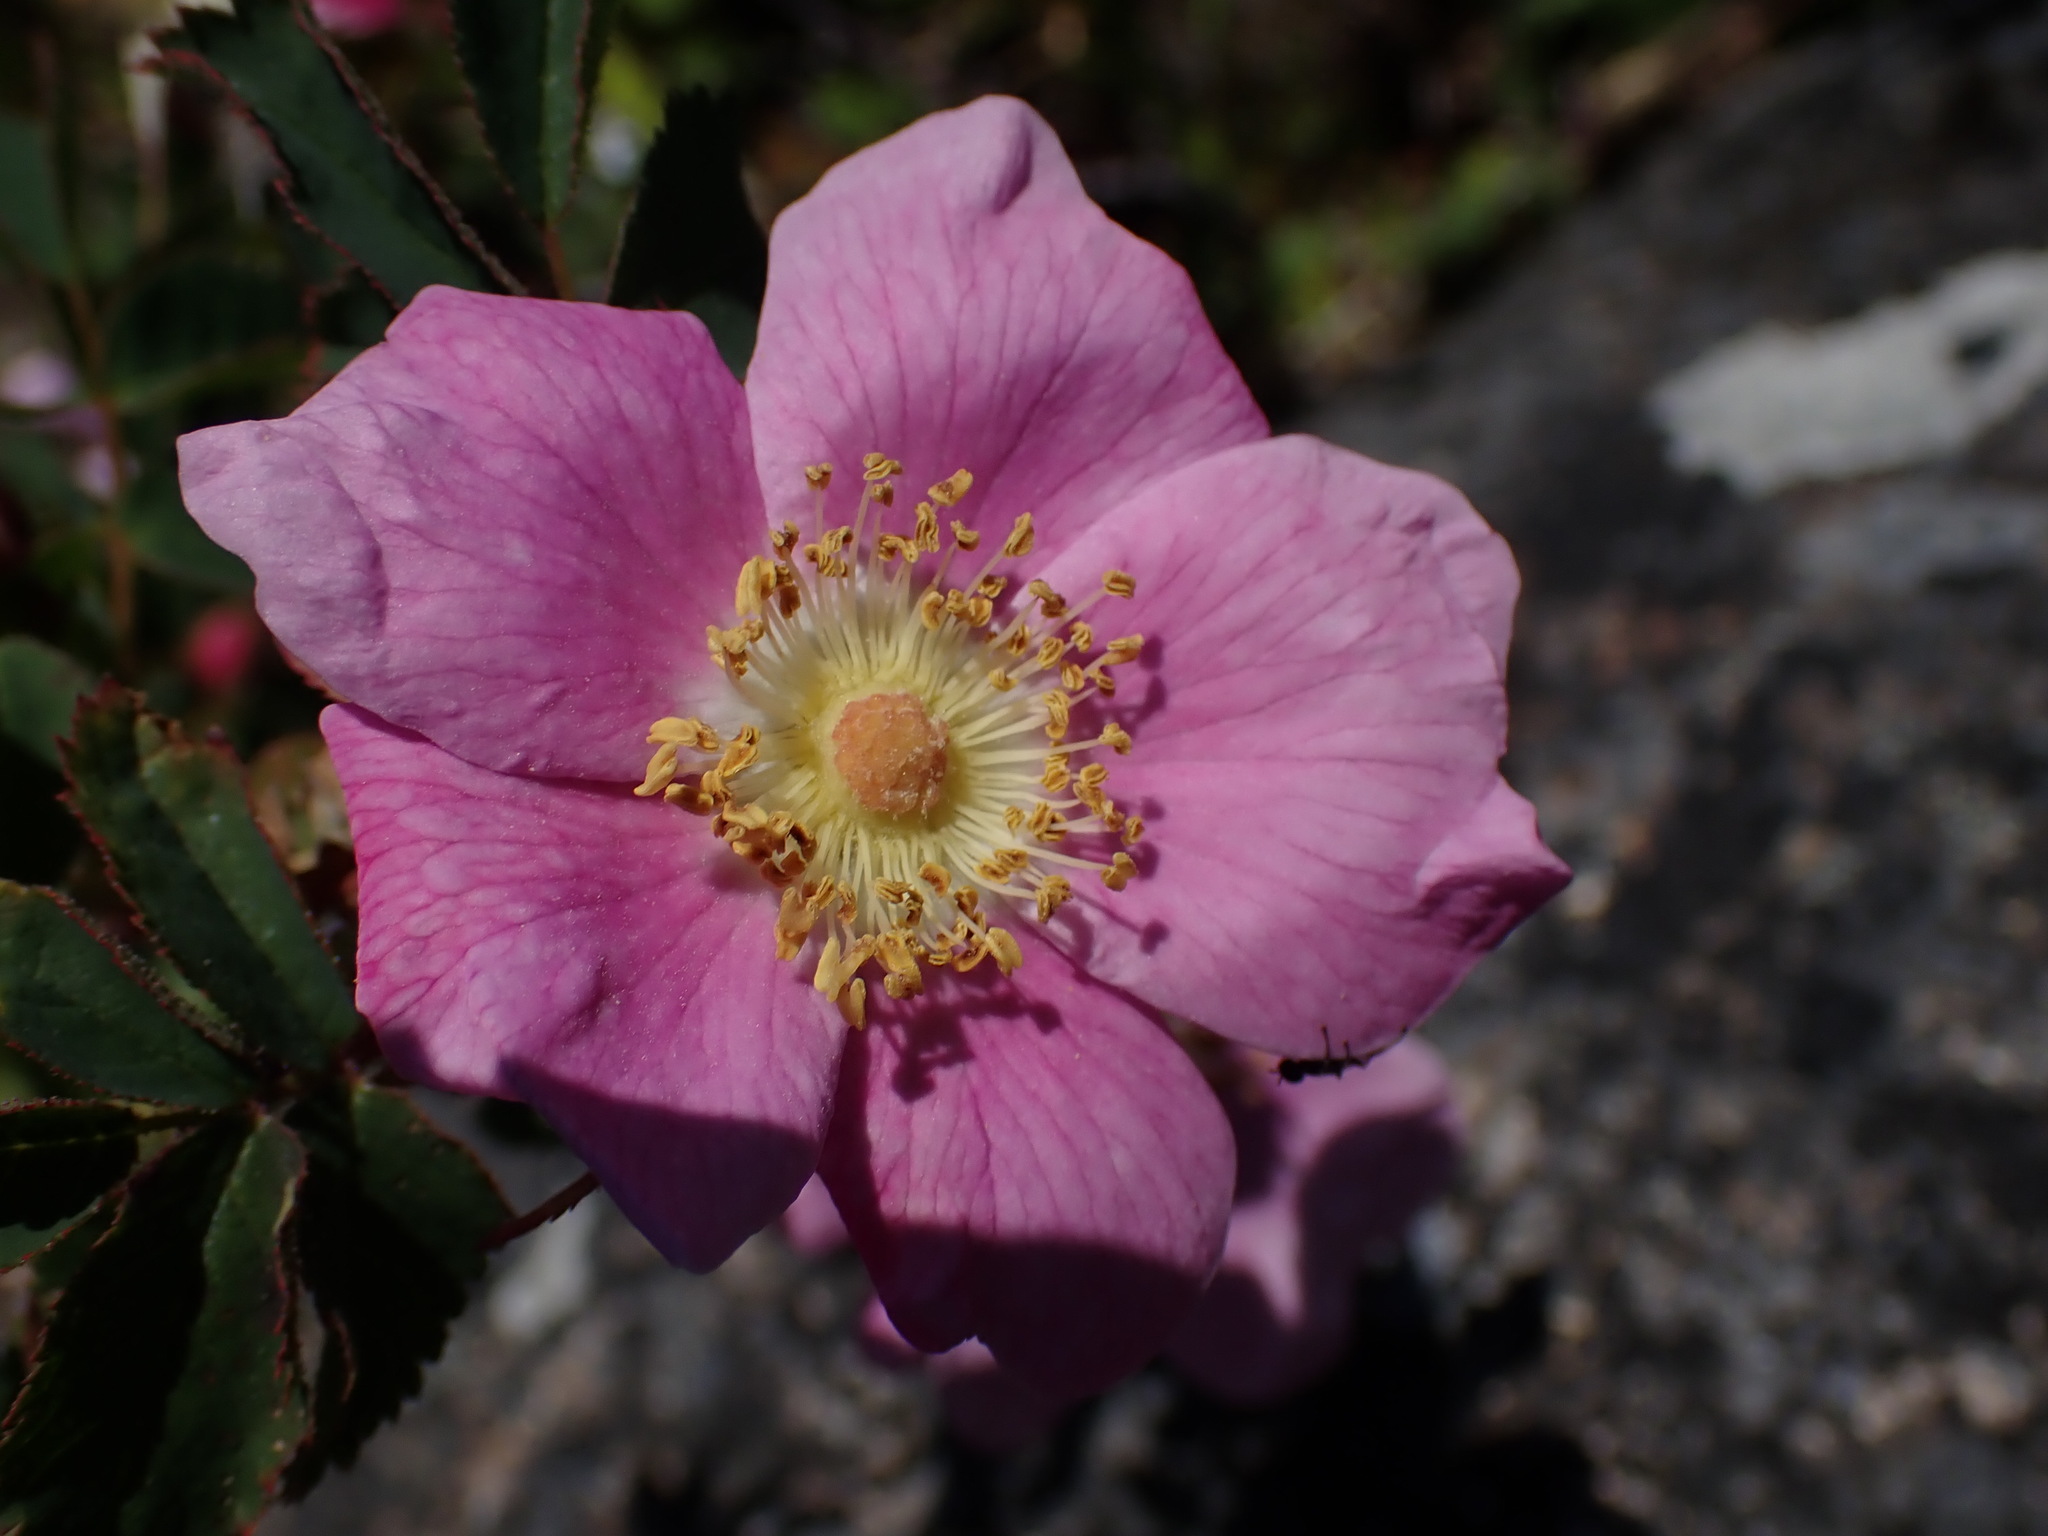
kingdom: Plantae
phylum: Tracheophyta
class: Magnoliopsida
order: Rosales
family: Rosaceae
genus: Rosa
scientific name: Rosa nutkana
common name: Nootka rose
